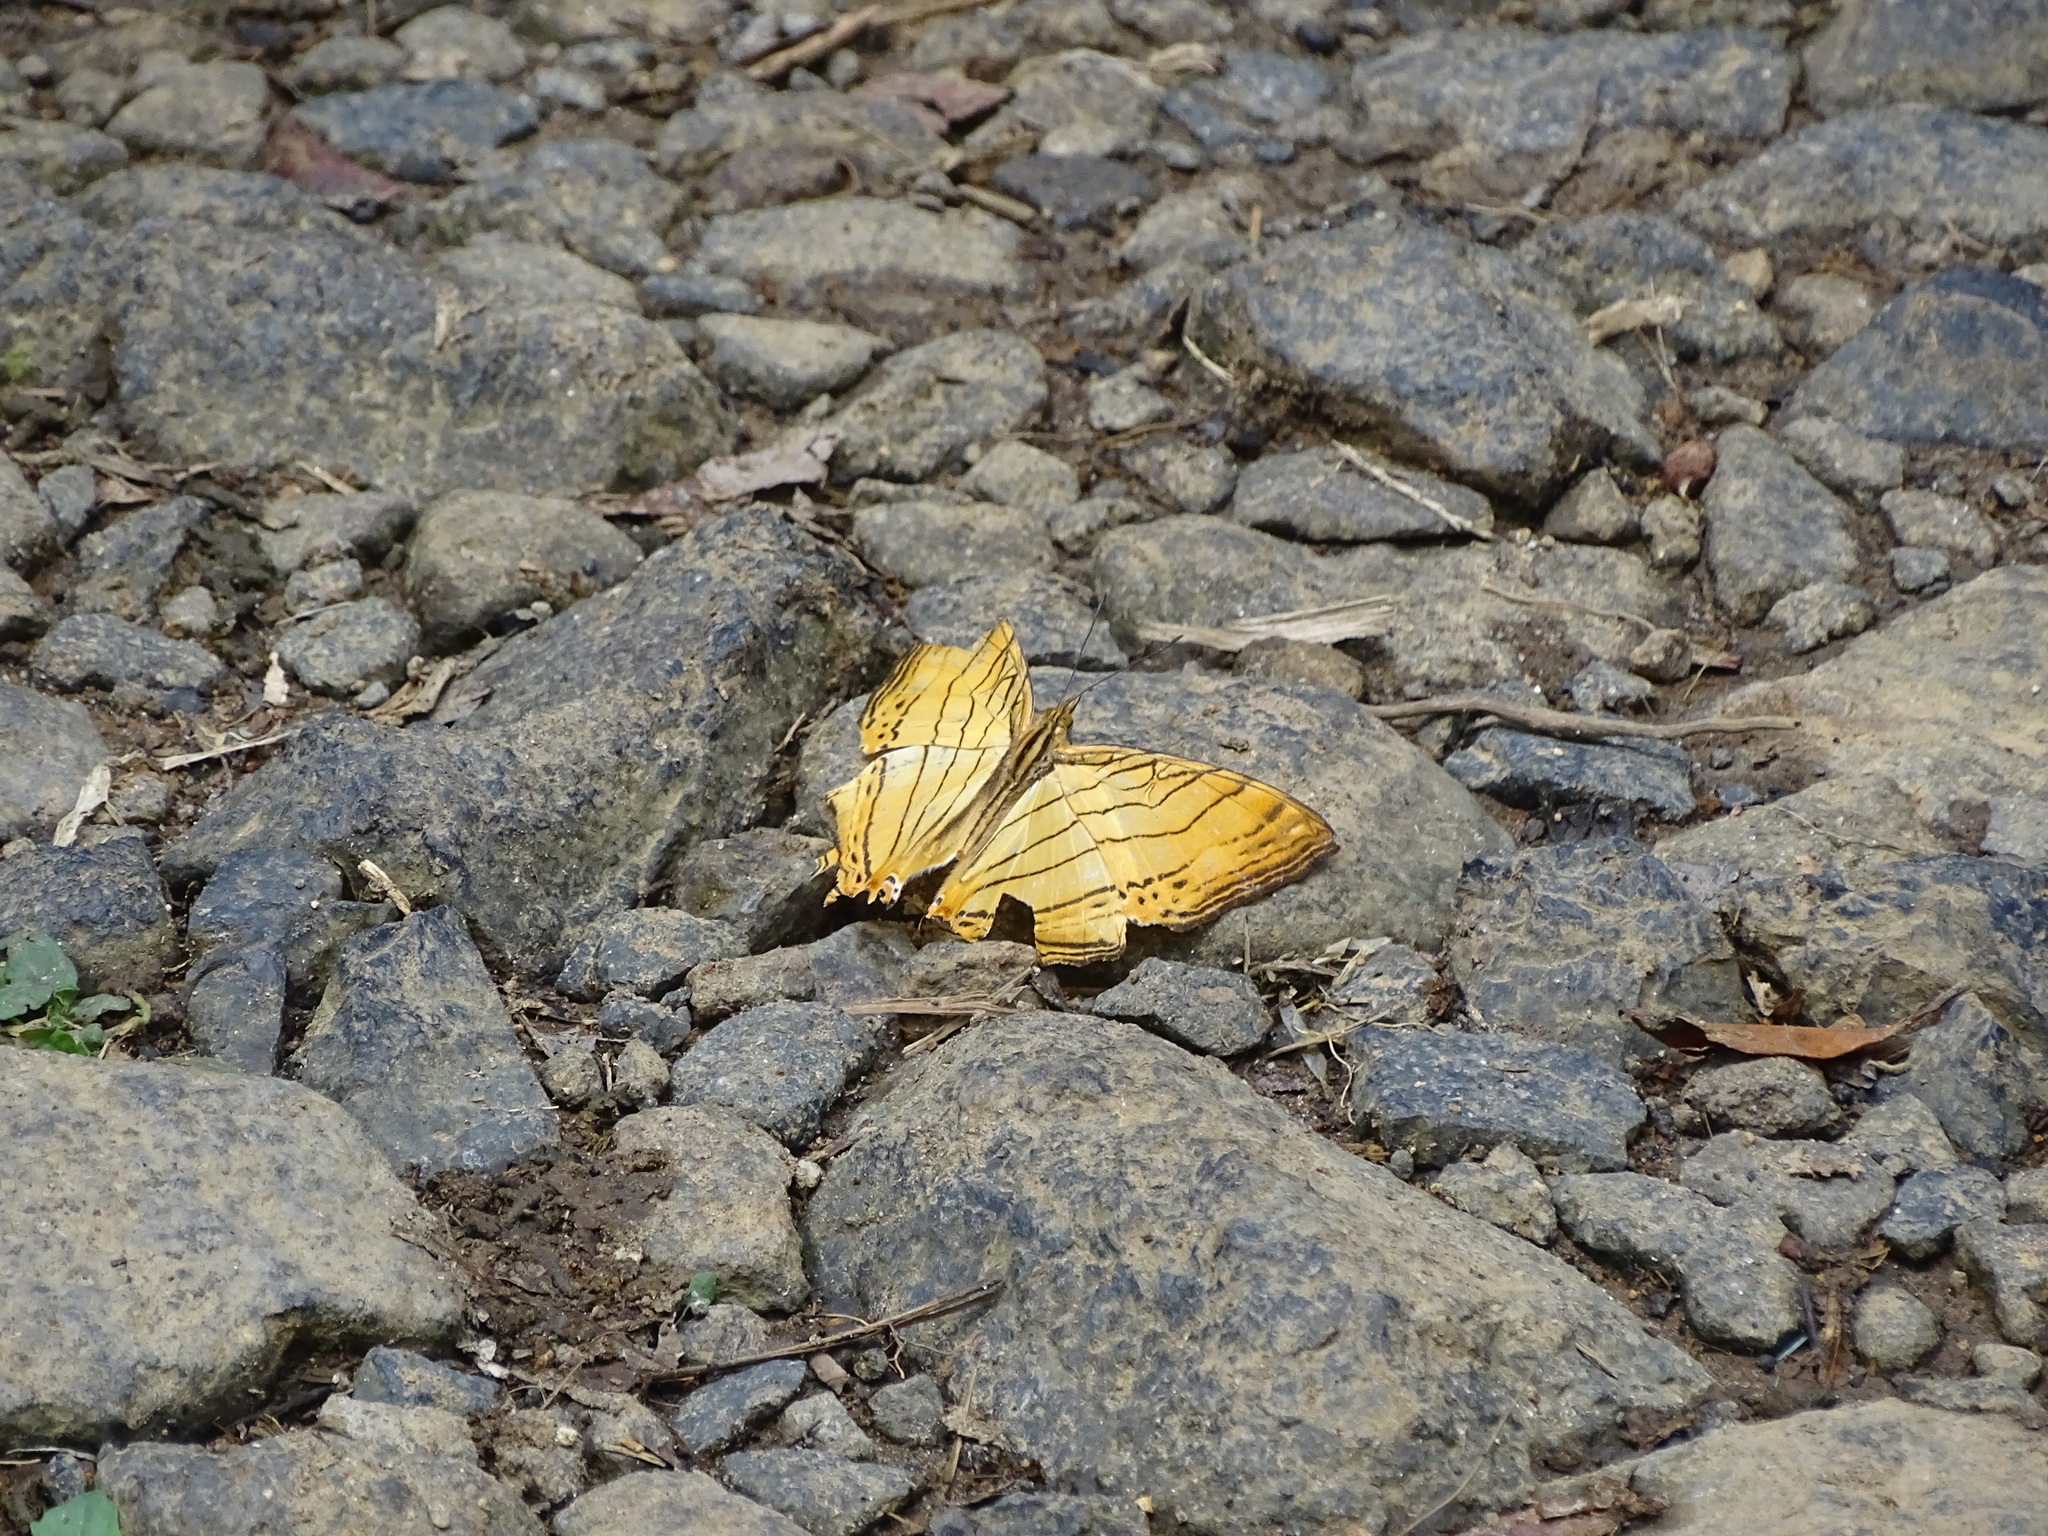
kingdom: Animalia
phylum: Arthropoda
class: Insecta
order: Lepidoptera
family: Nymphalidae
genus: Cyrestis
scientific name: Cyrestis lutea
